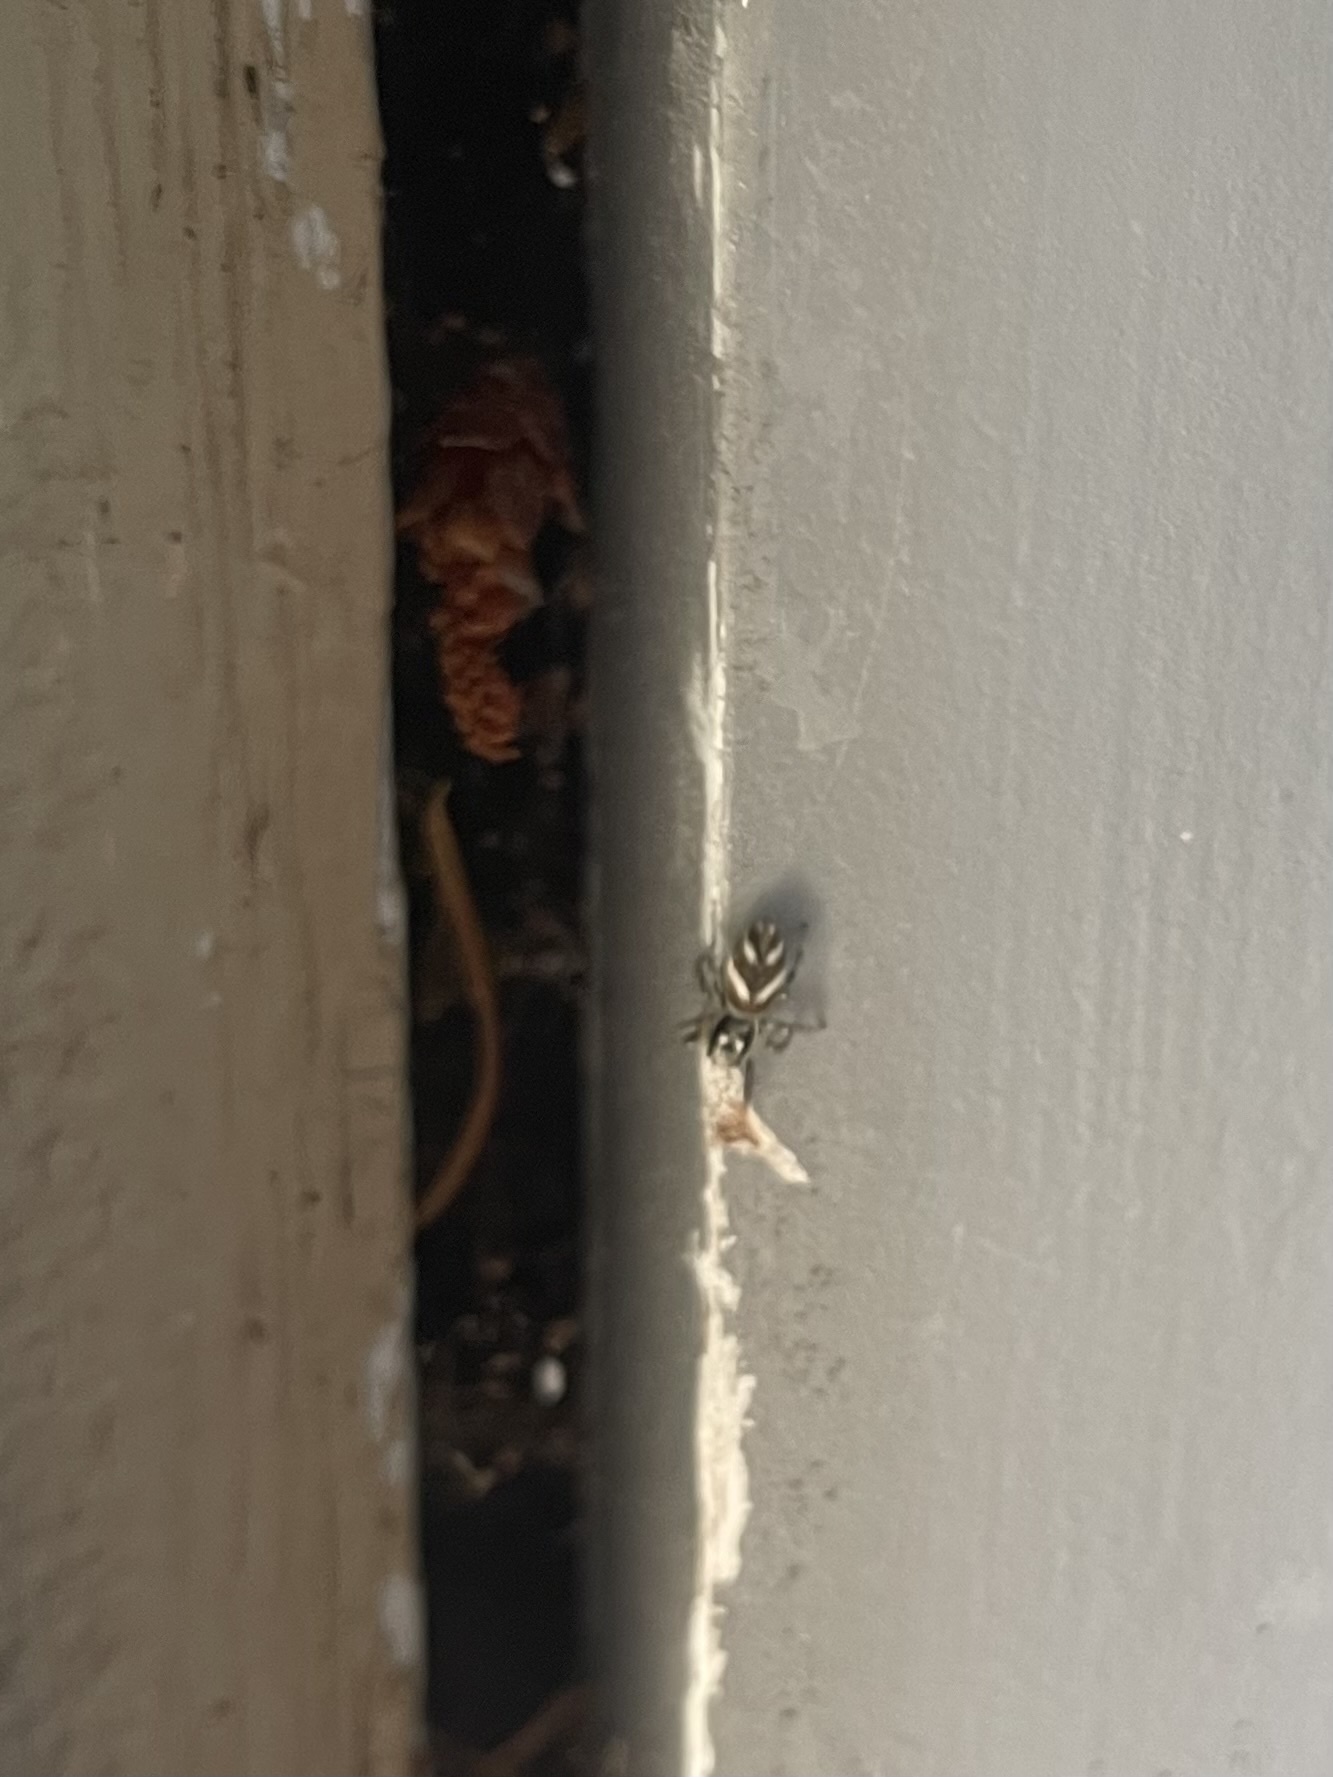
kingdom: Animalia
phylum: Arthropoda
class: Arachnida
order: Araneae
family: Salticidae
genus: Salticus
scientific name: Salticus scenicus
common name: Zebra jumper
